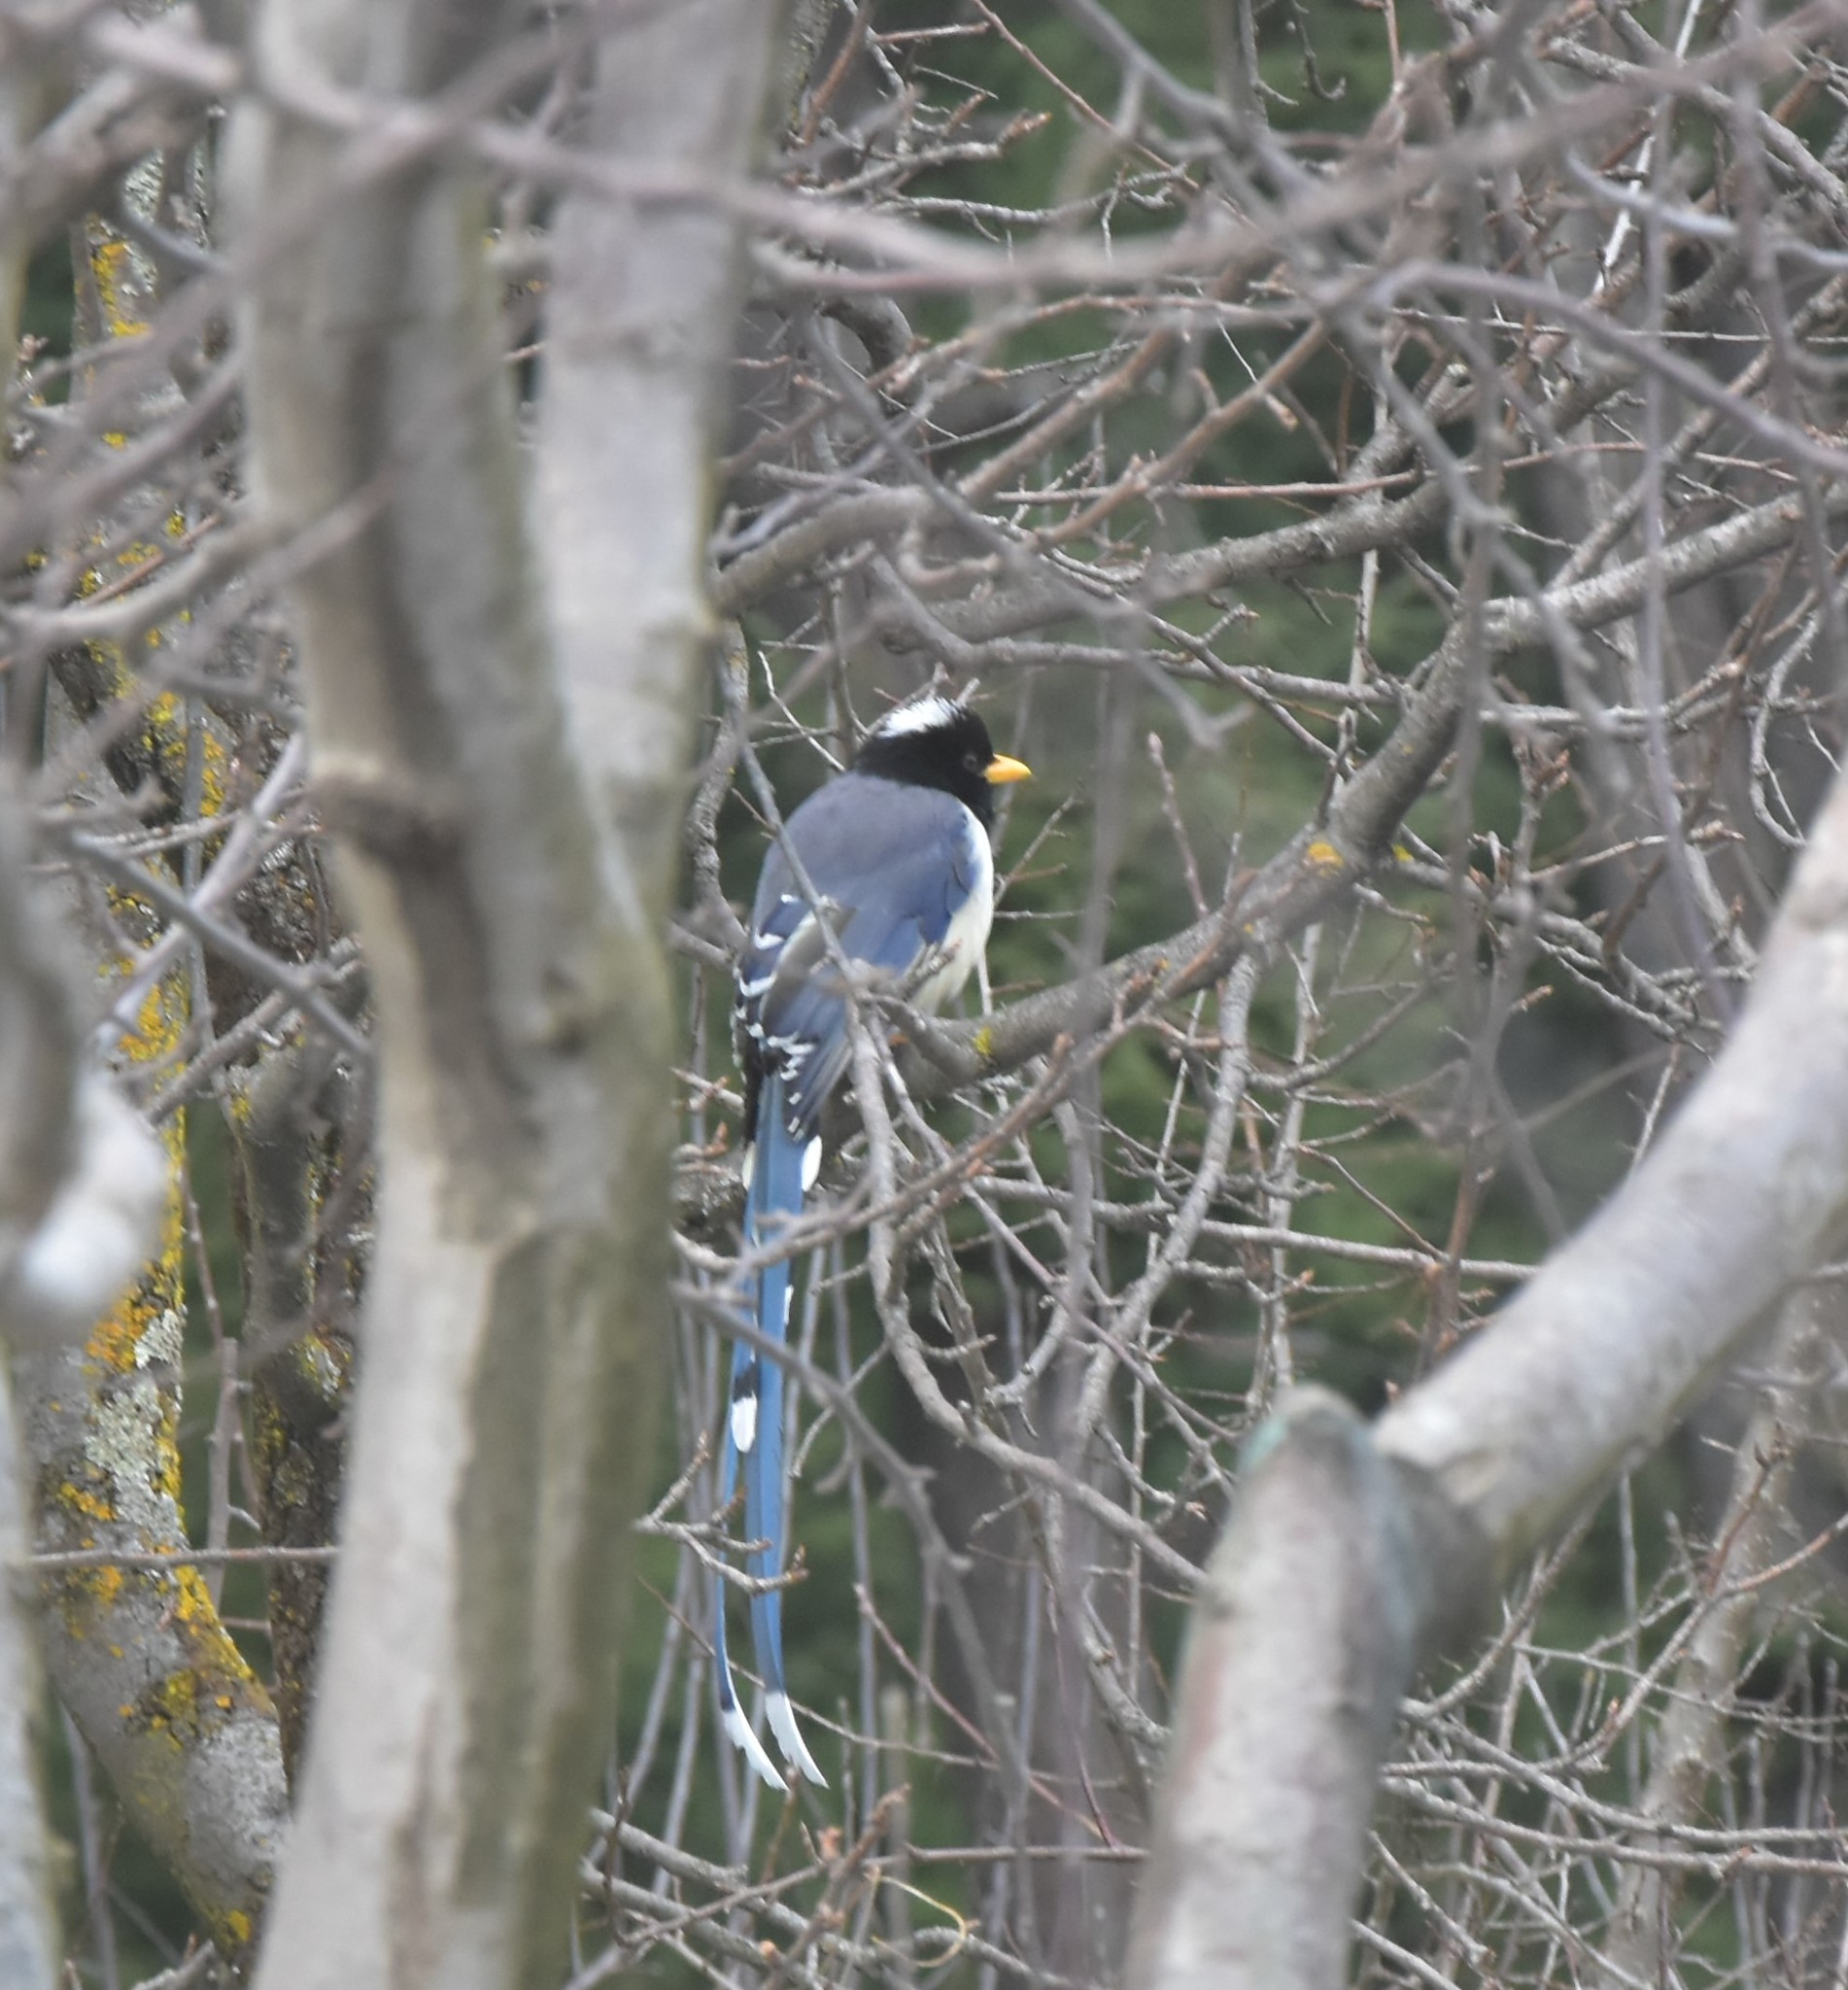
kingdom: Animalia
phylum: Chordata
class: Aves
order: Passeriformes
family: Corvidae
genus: Urocissa
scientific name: Urocissa flavirostris
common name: Yellow-billed blue magpie
